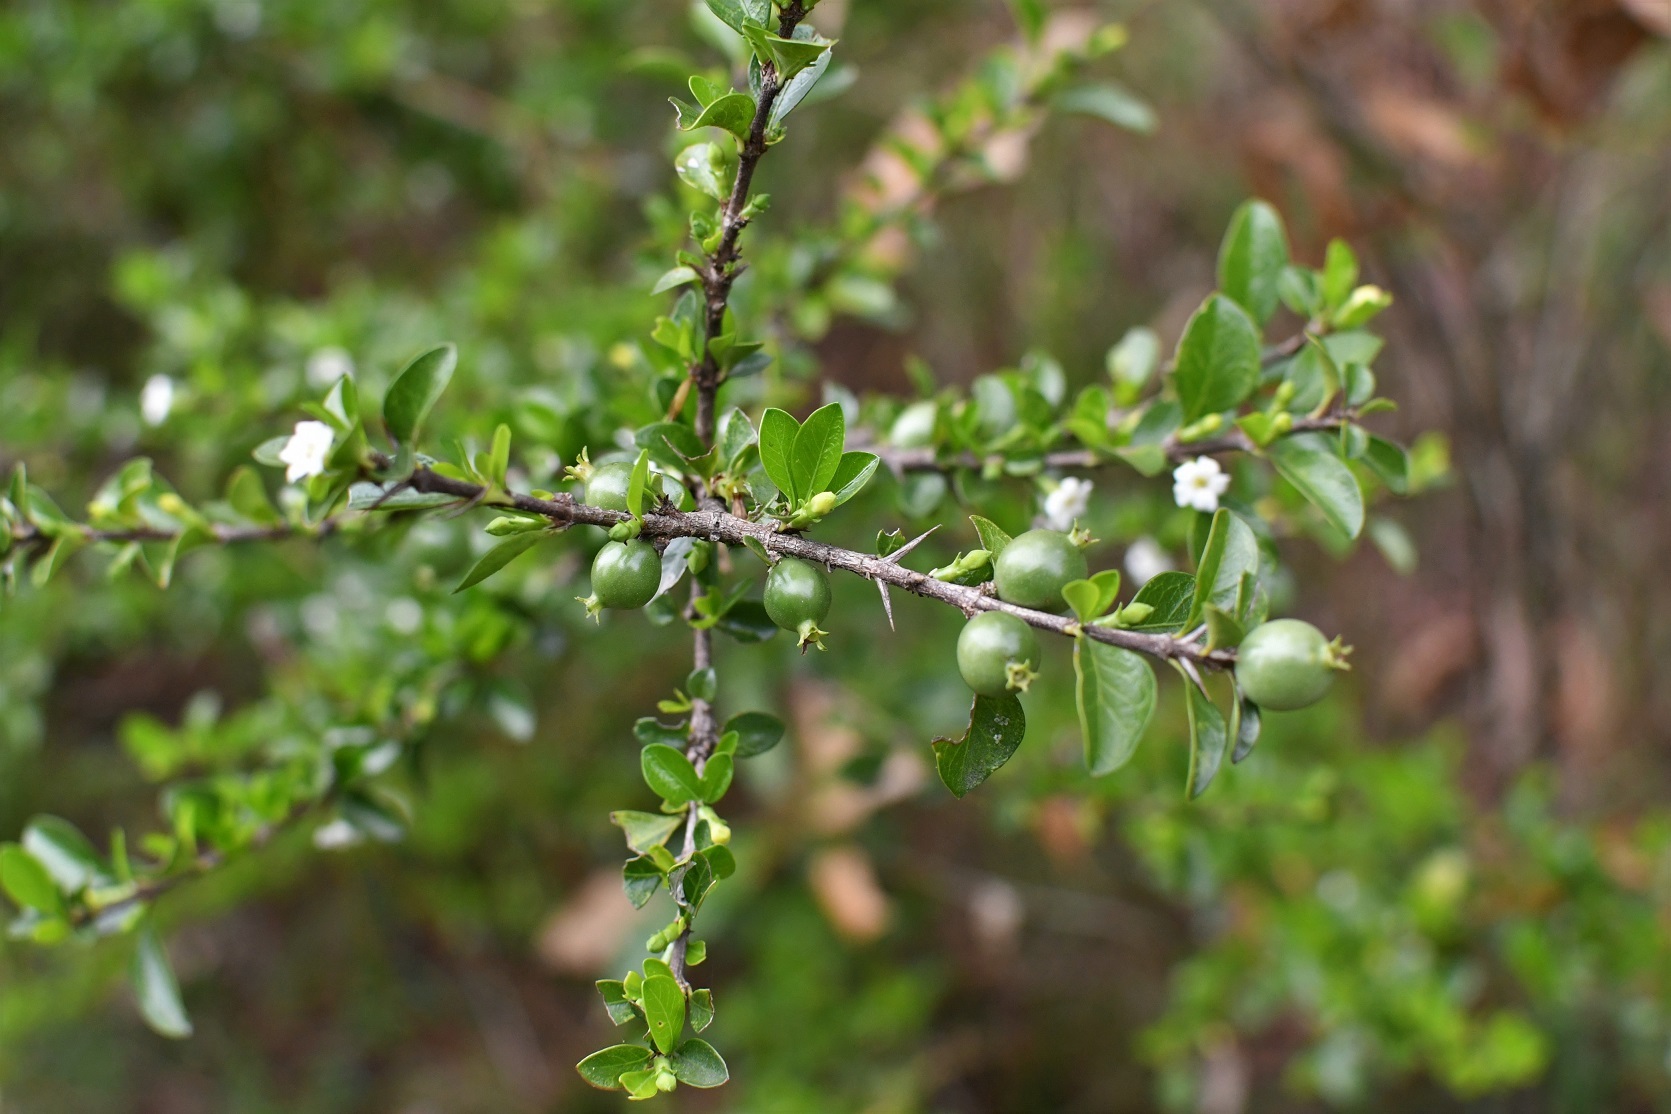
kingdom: Plantae
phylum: Tracheophyta
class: Magnoliopsida
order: Gentianales
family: Rubiaceae
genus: Randia
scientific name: Randia chiapensis
